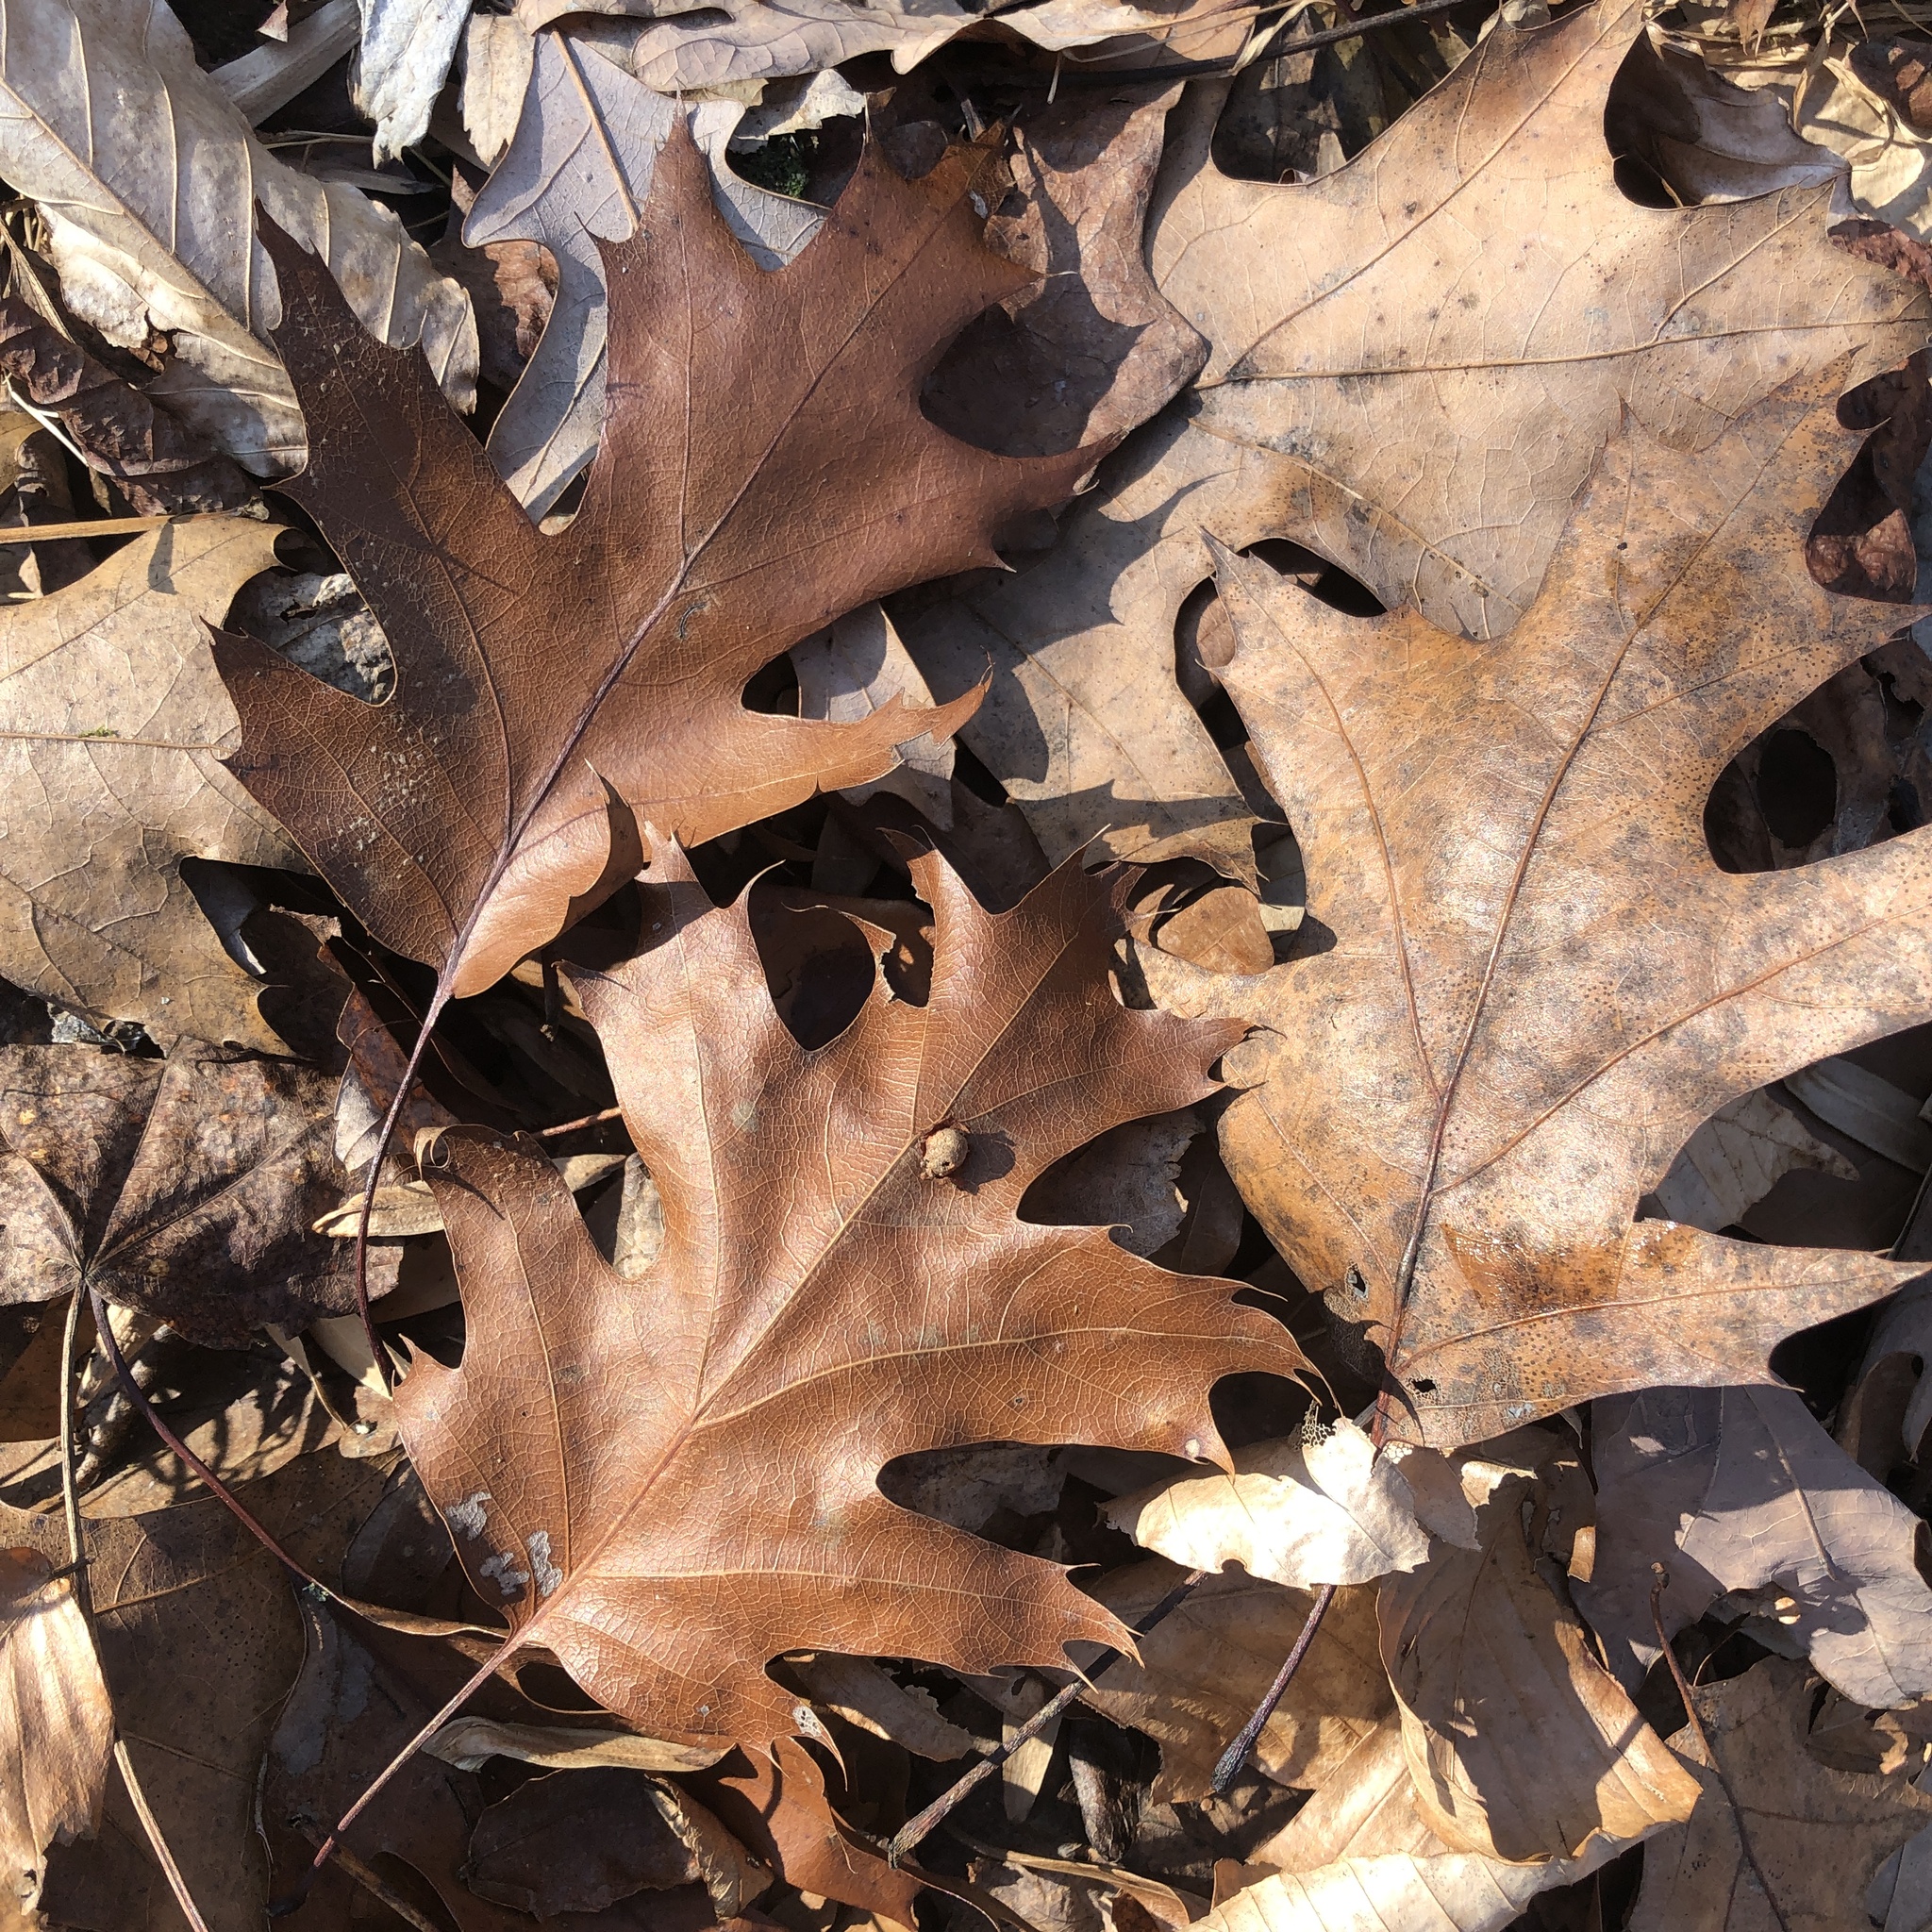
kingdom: Plantae
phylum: Tracheophyta
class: Magnoliopsida
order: Fagales
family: Fagaceae
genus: Quercus
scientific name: Quercus rubra
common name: Red oak
